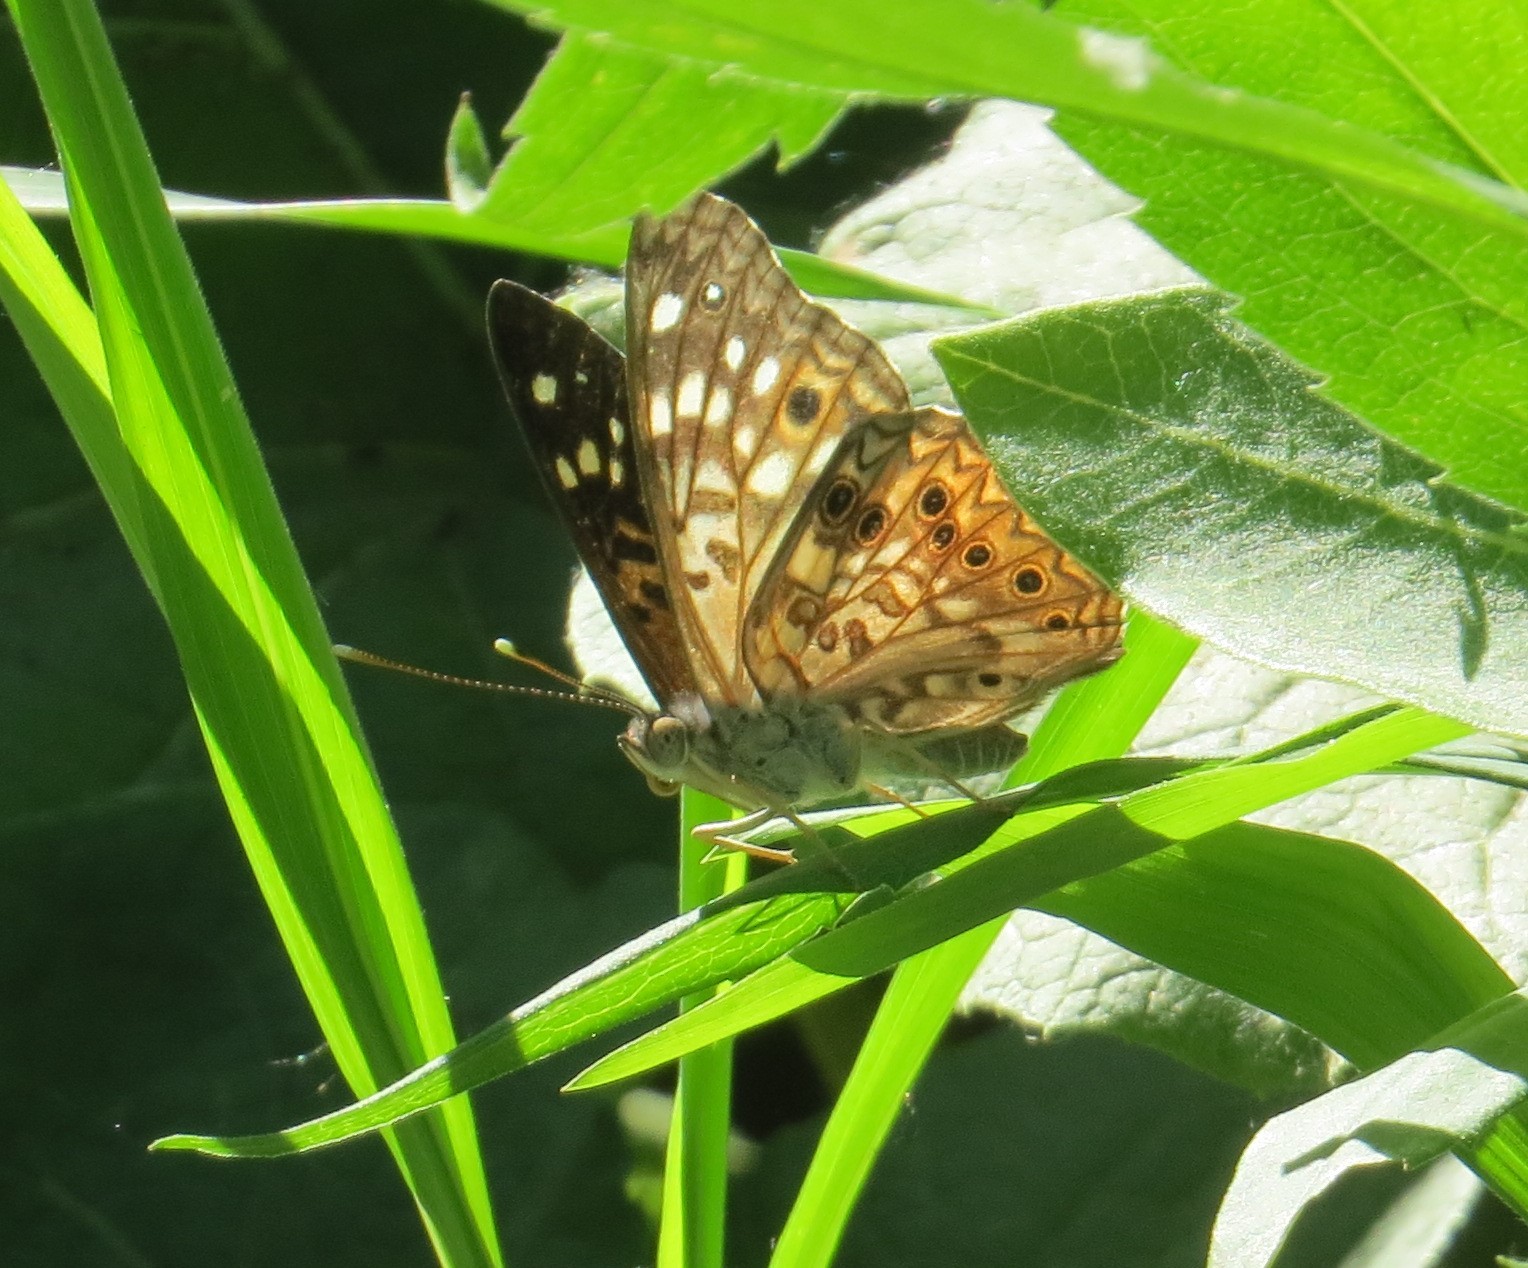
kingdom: Animalia
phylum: Arthropoda
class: Insecta
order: Lepidoptera
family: Nymphalidae
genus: Asterocampa
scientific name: Asterocampa celtis
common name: Hackberry emperor
